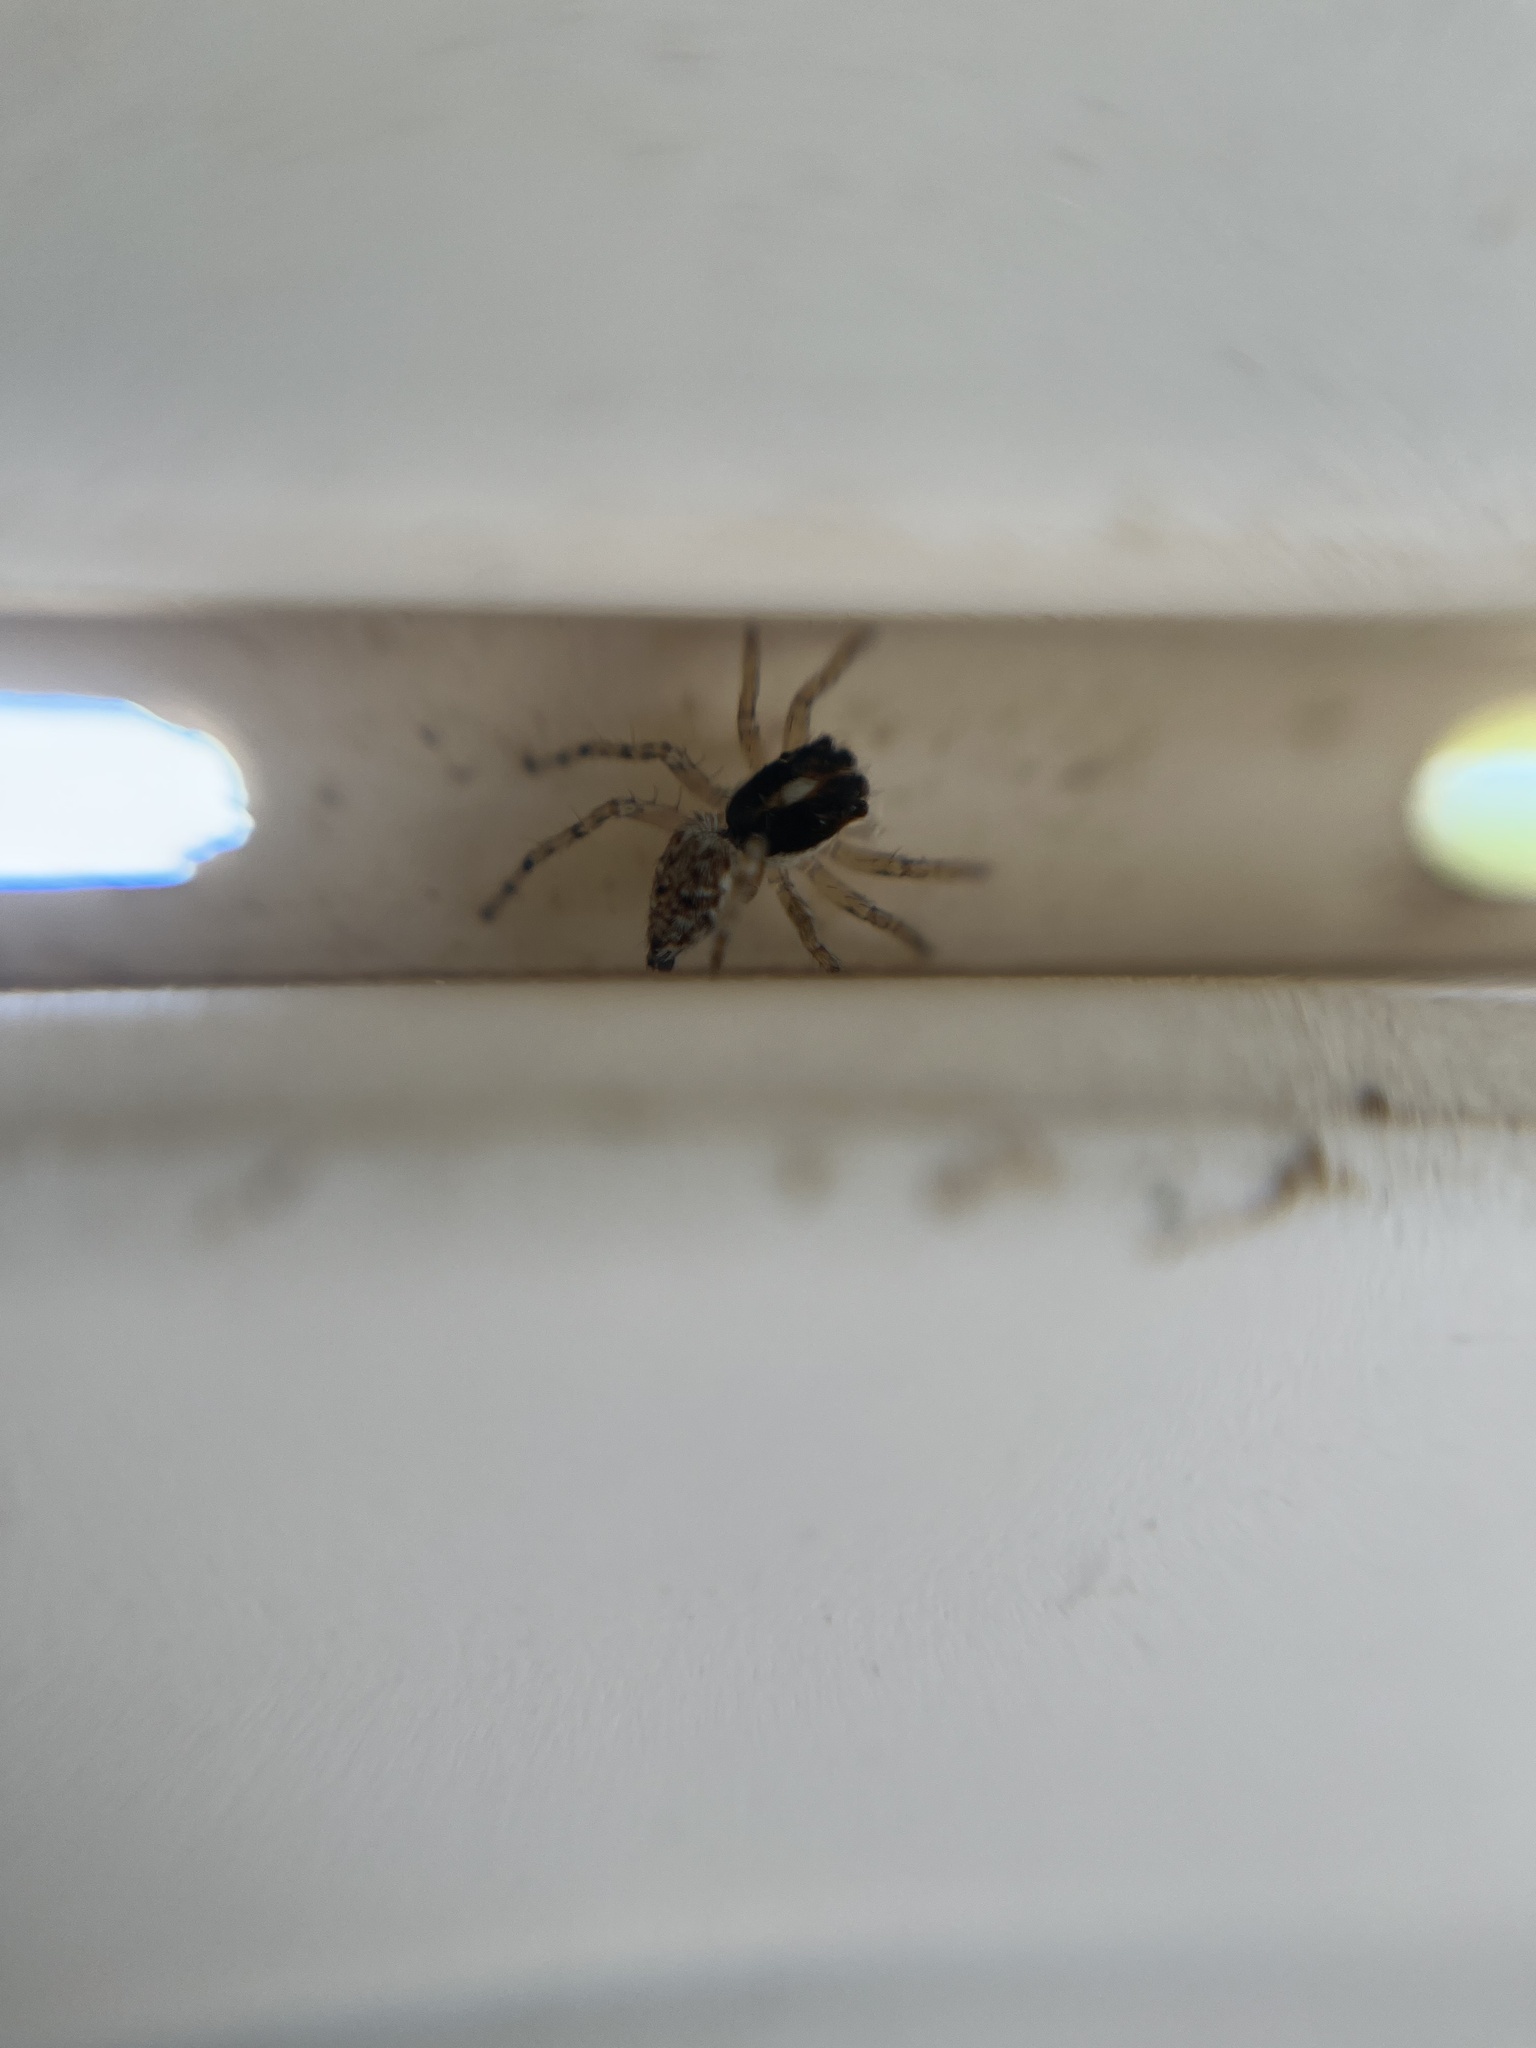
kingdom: Animalia
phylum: Arthropoda
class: Arachnida
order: Araneae
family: Salticidae
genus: Menemerus
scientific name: Menemerus semilimbatus
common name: Jumping spider
